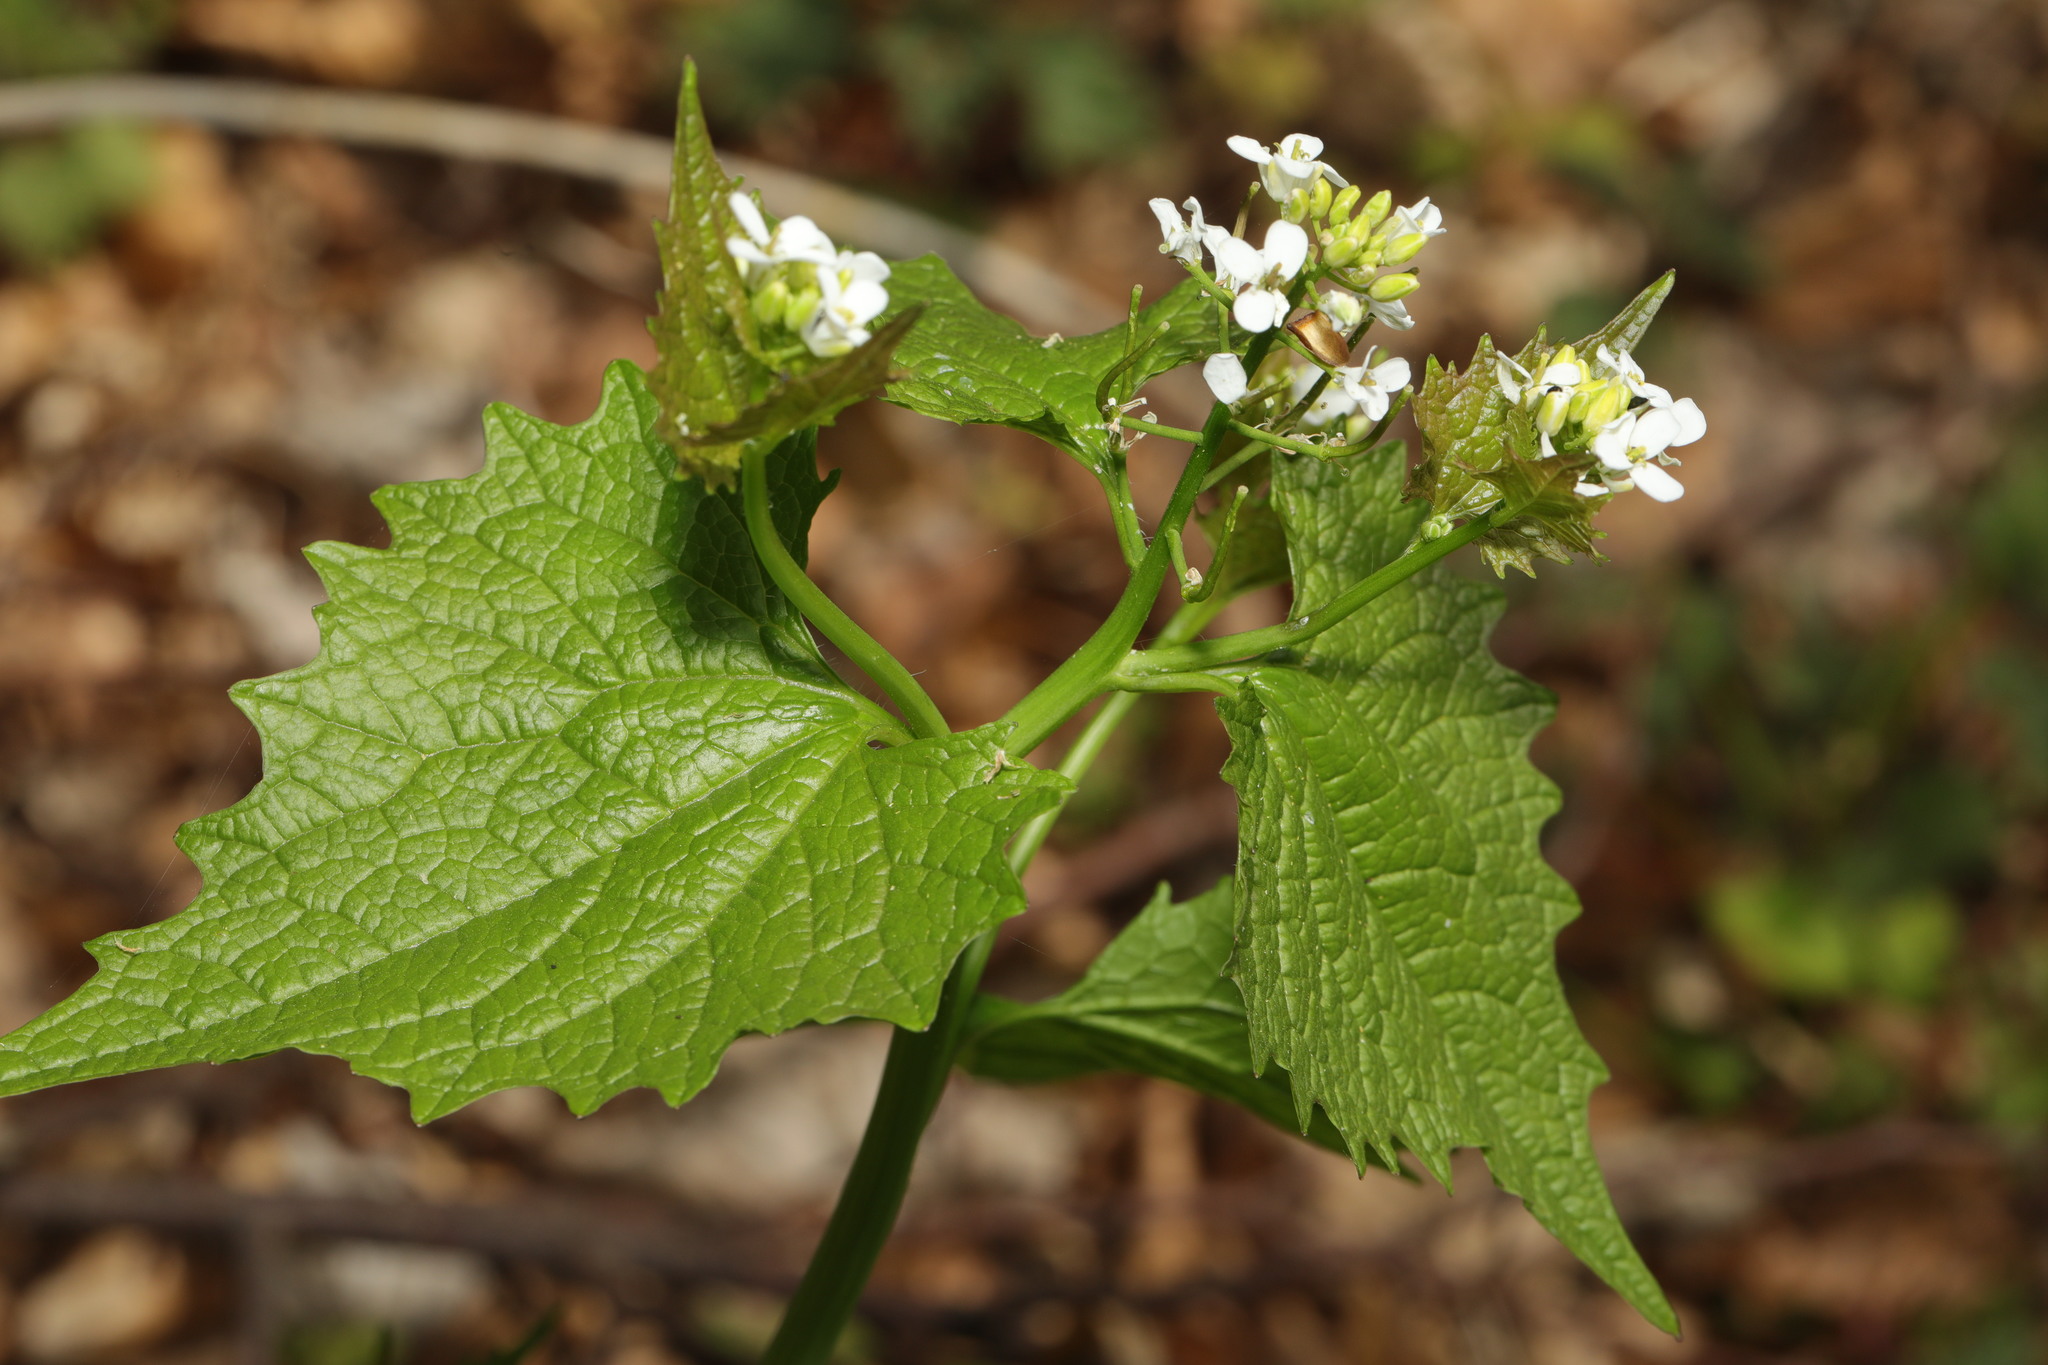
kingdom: Plantae
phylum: Tracheophyta
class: Magnoliopsida
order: Brassicales
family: Brassicaceae
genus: Alliaria
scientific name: Alliaria petiolata
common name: Garlic mustard
